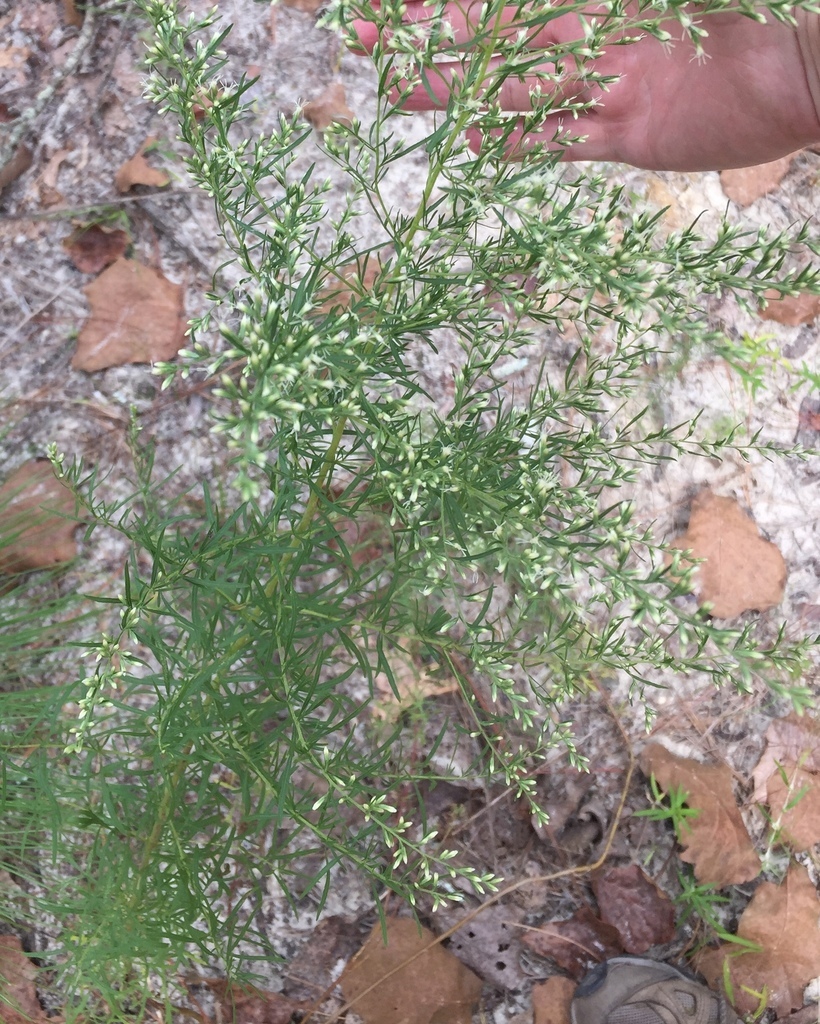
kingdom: Plantae
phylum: Tracheophyta
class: Magnoliopsida
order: Asterales
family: Asteraceae
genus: Eupatorium
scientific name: Eupatorium compositifolium
